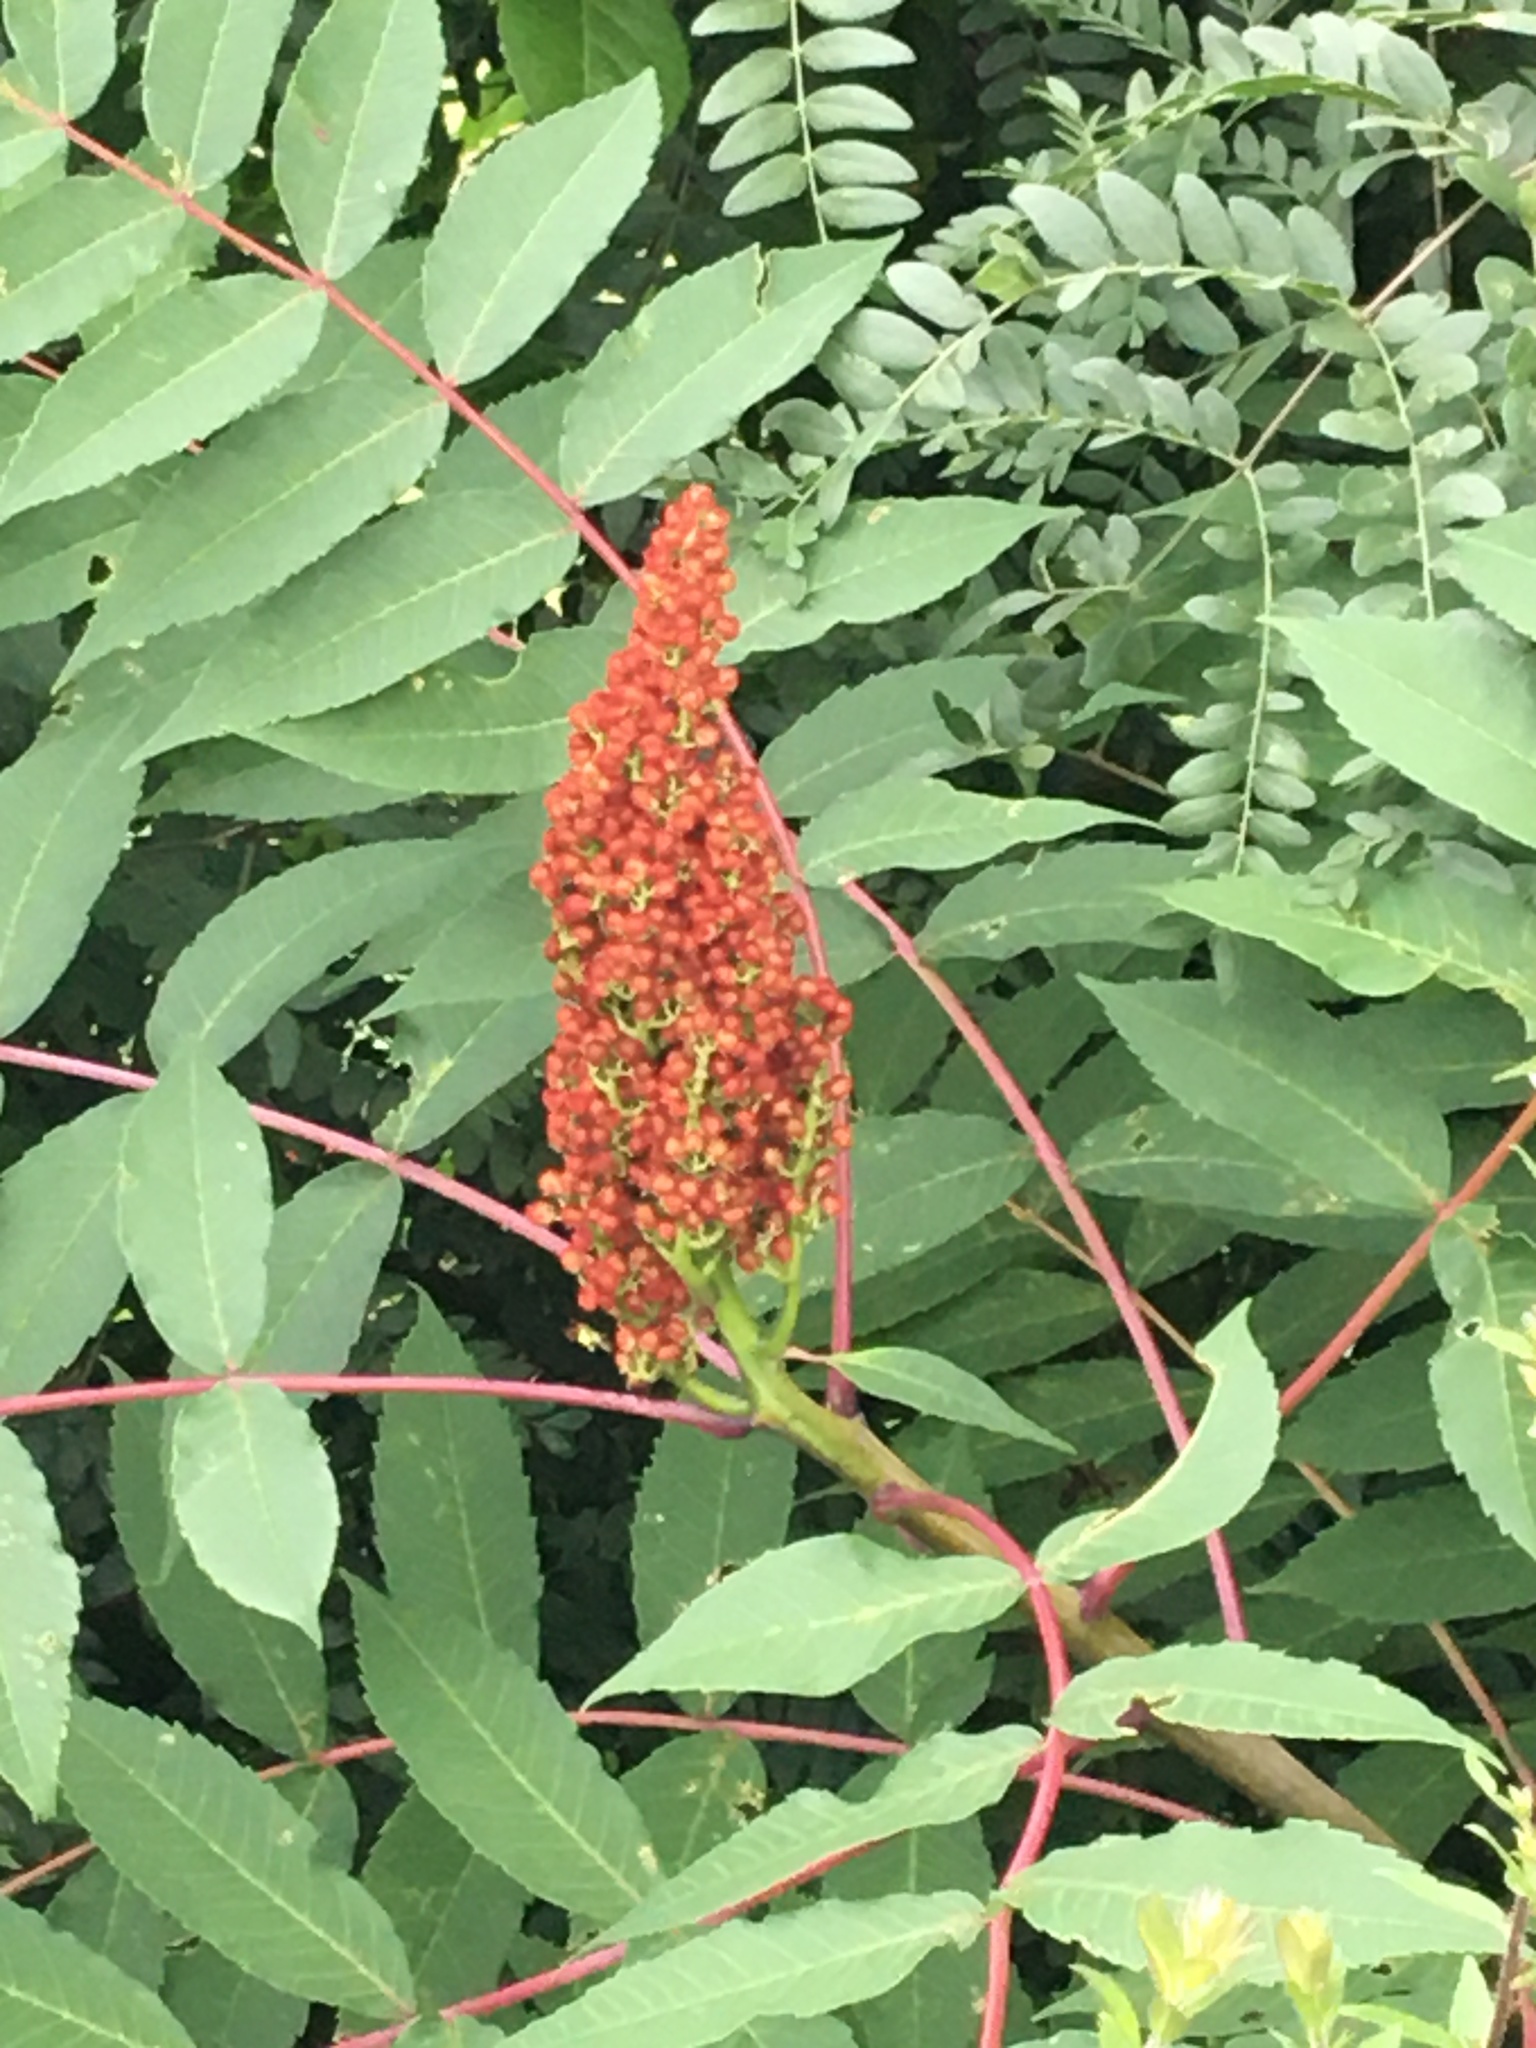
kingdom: Plantae
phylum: Tracheophyta
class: Magnoliopsida
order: Sapindales
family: Anacardiaceae
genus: Rhus
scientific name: Rhus glabra
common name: Scarlet sumac
